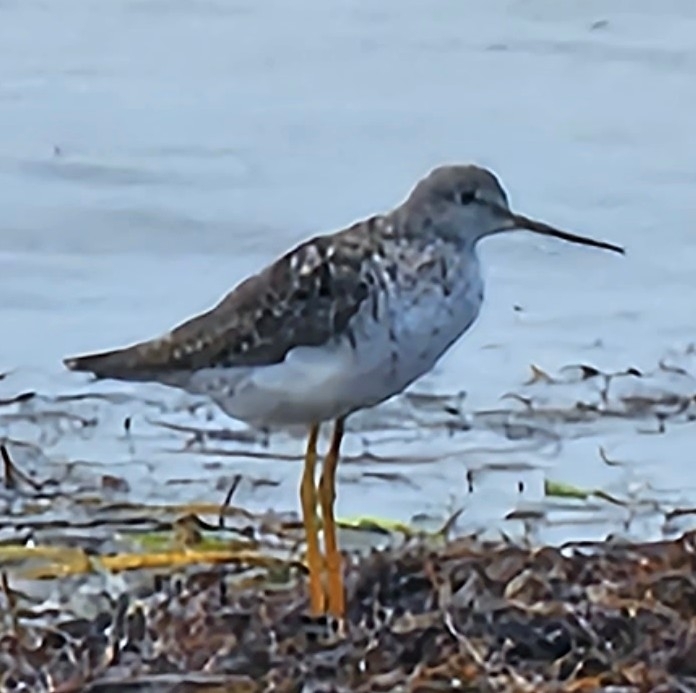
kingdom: Animalia
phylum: Chordata
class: Aves
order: Charadriiformes
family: Scolopacidae
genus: Tringa
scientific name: Tringa melanoleuca
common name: Greater yellowlegs
